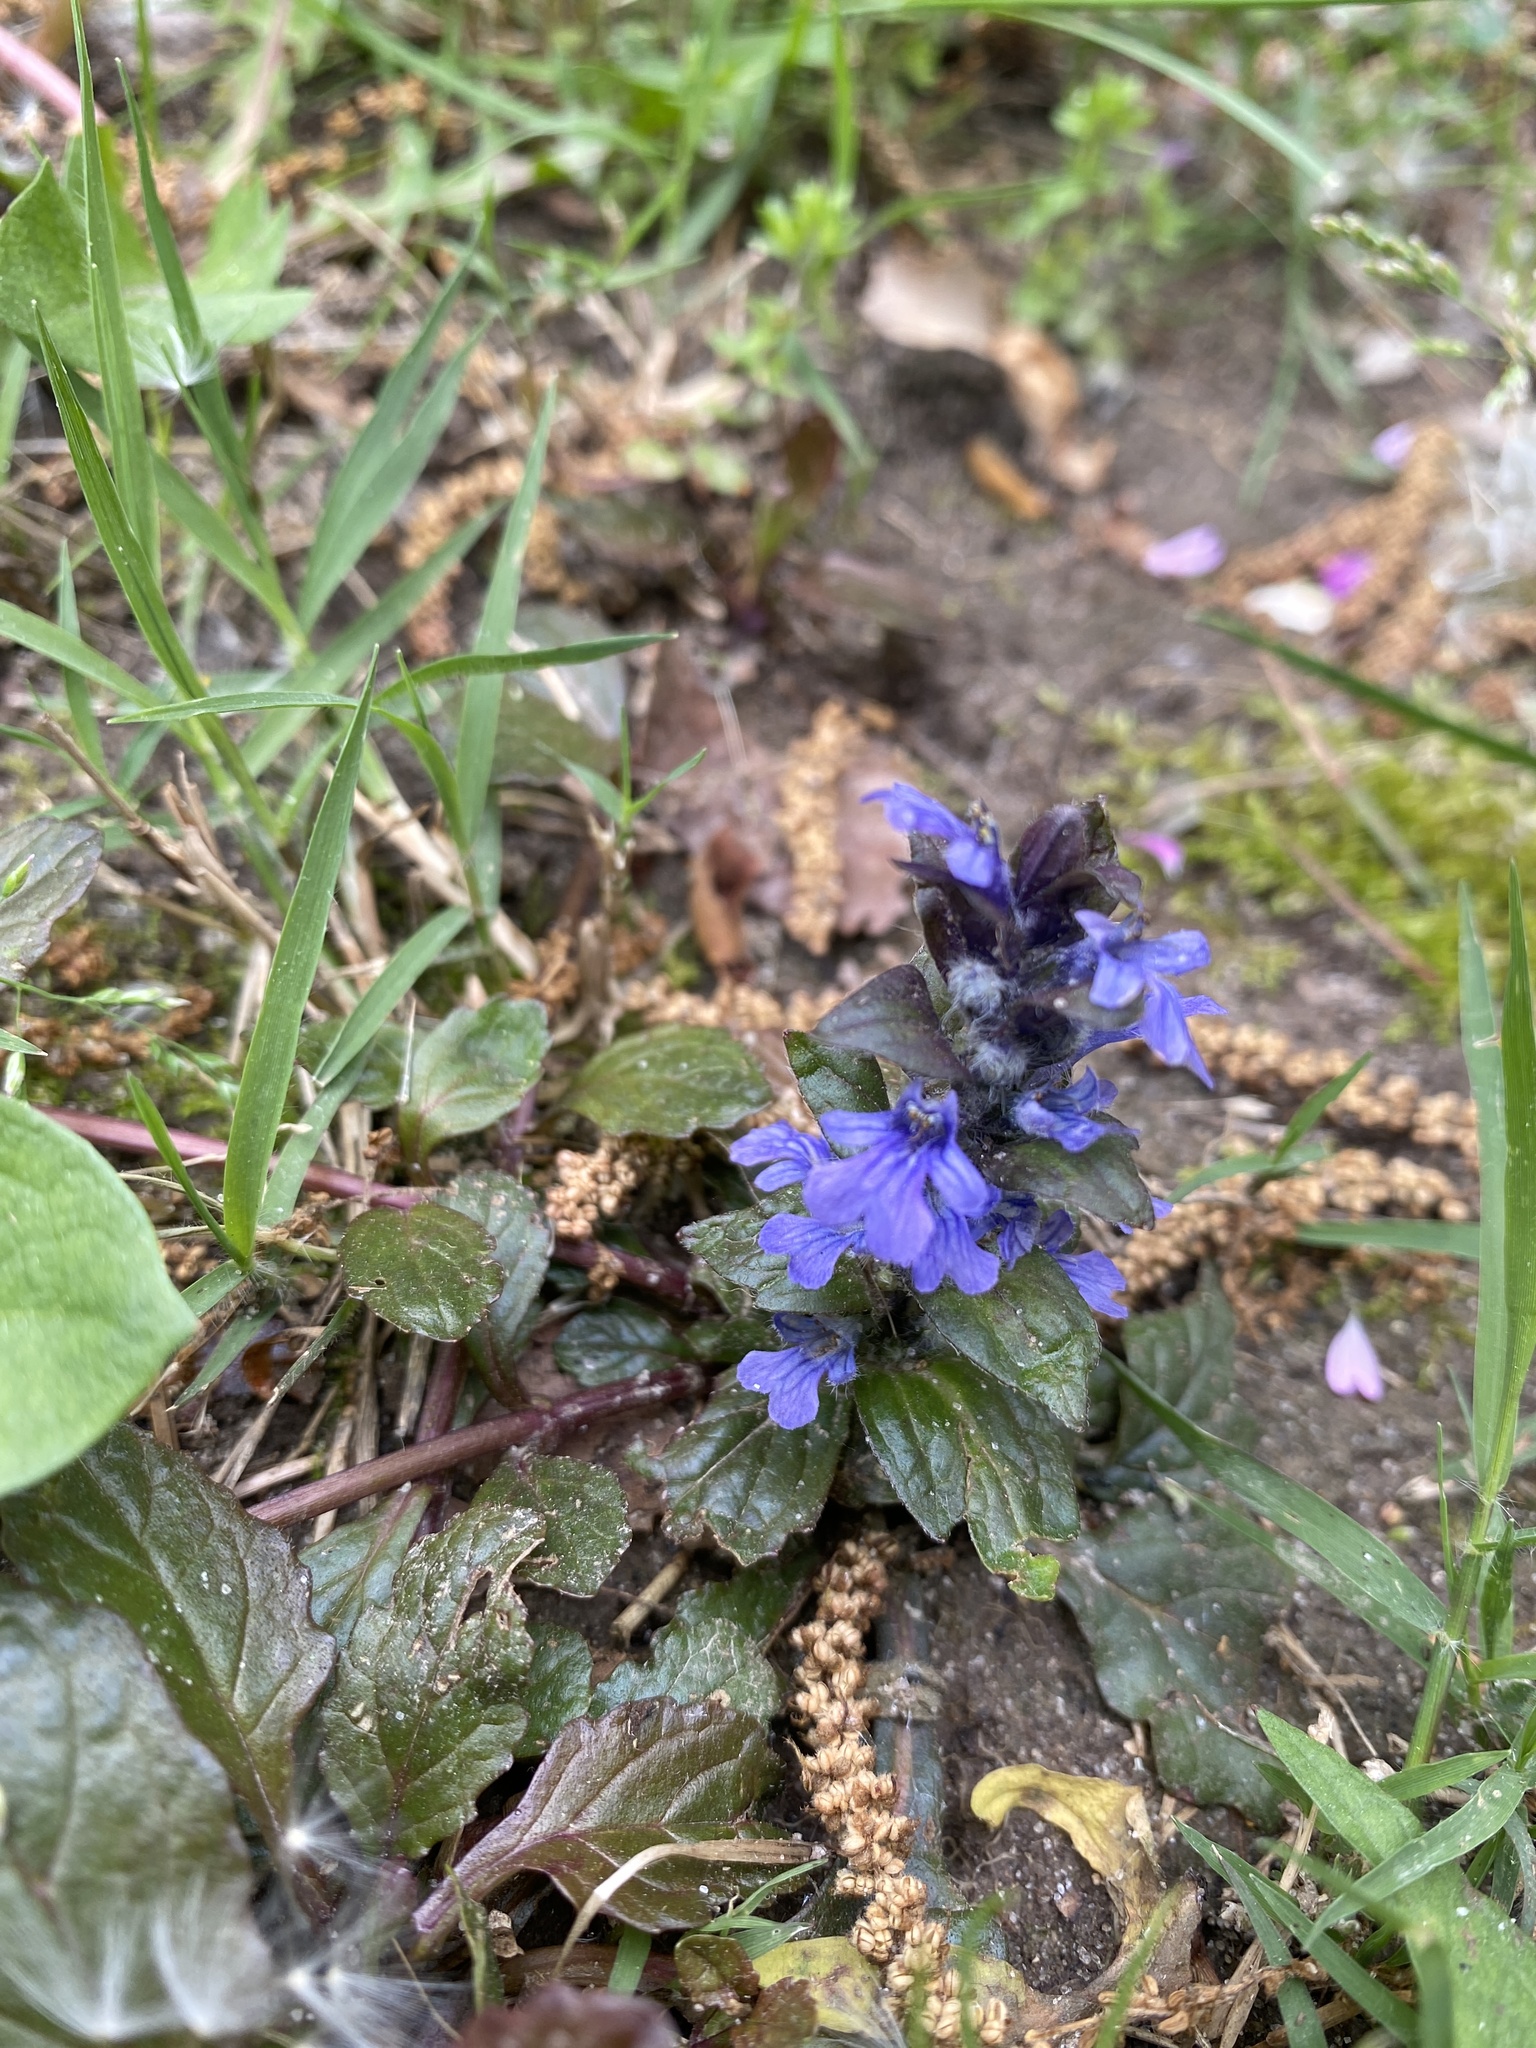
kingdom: Plantae
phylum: Tracheophyta
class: Magnoliopsida
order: Lamiales
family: Lamiaceae
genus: Ajuga
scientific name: Ajuga reptans
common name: Bugle
